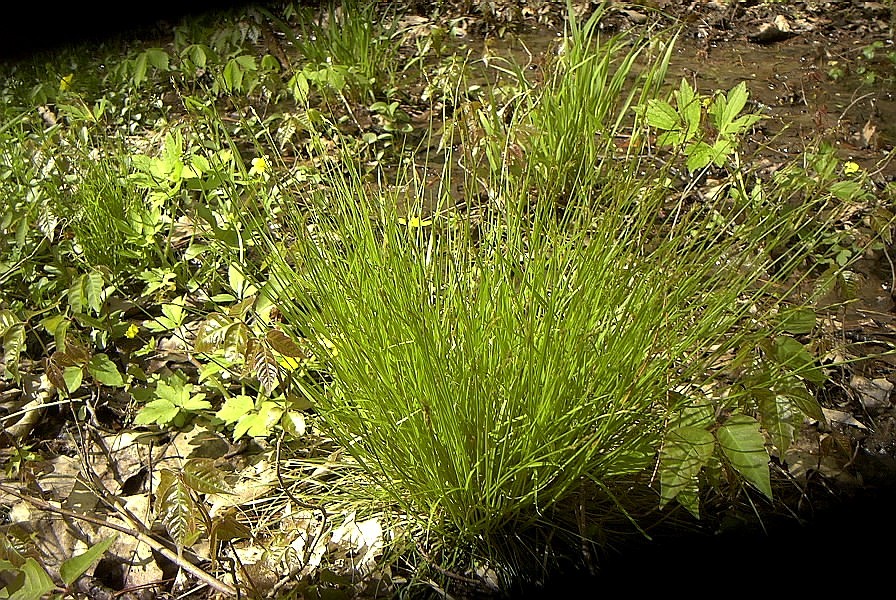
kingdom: Plantae
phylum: Tracheophyta
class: Liliopsida
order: Poales
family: Cyperaceae
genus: Carex
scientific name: Carex bromoides
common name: Brome hummock sedge
